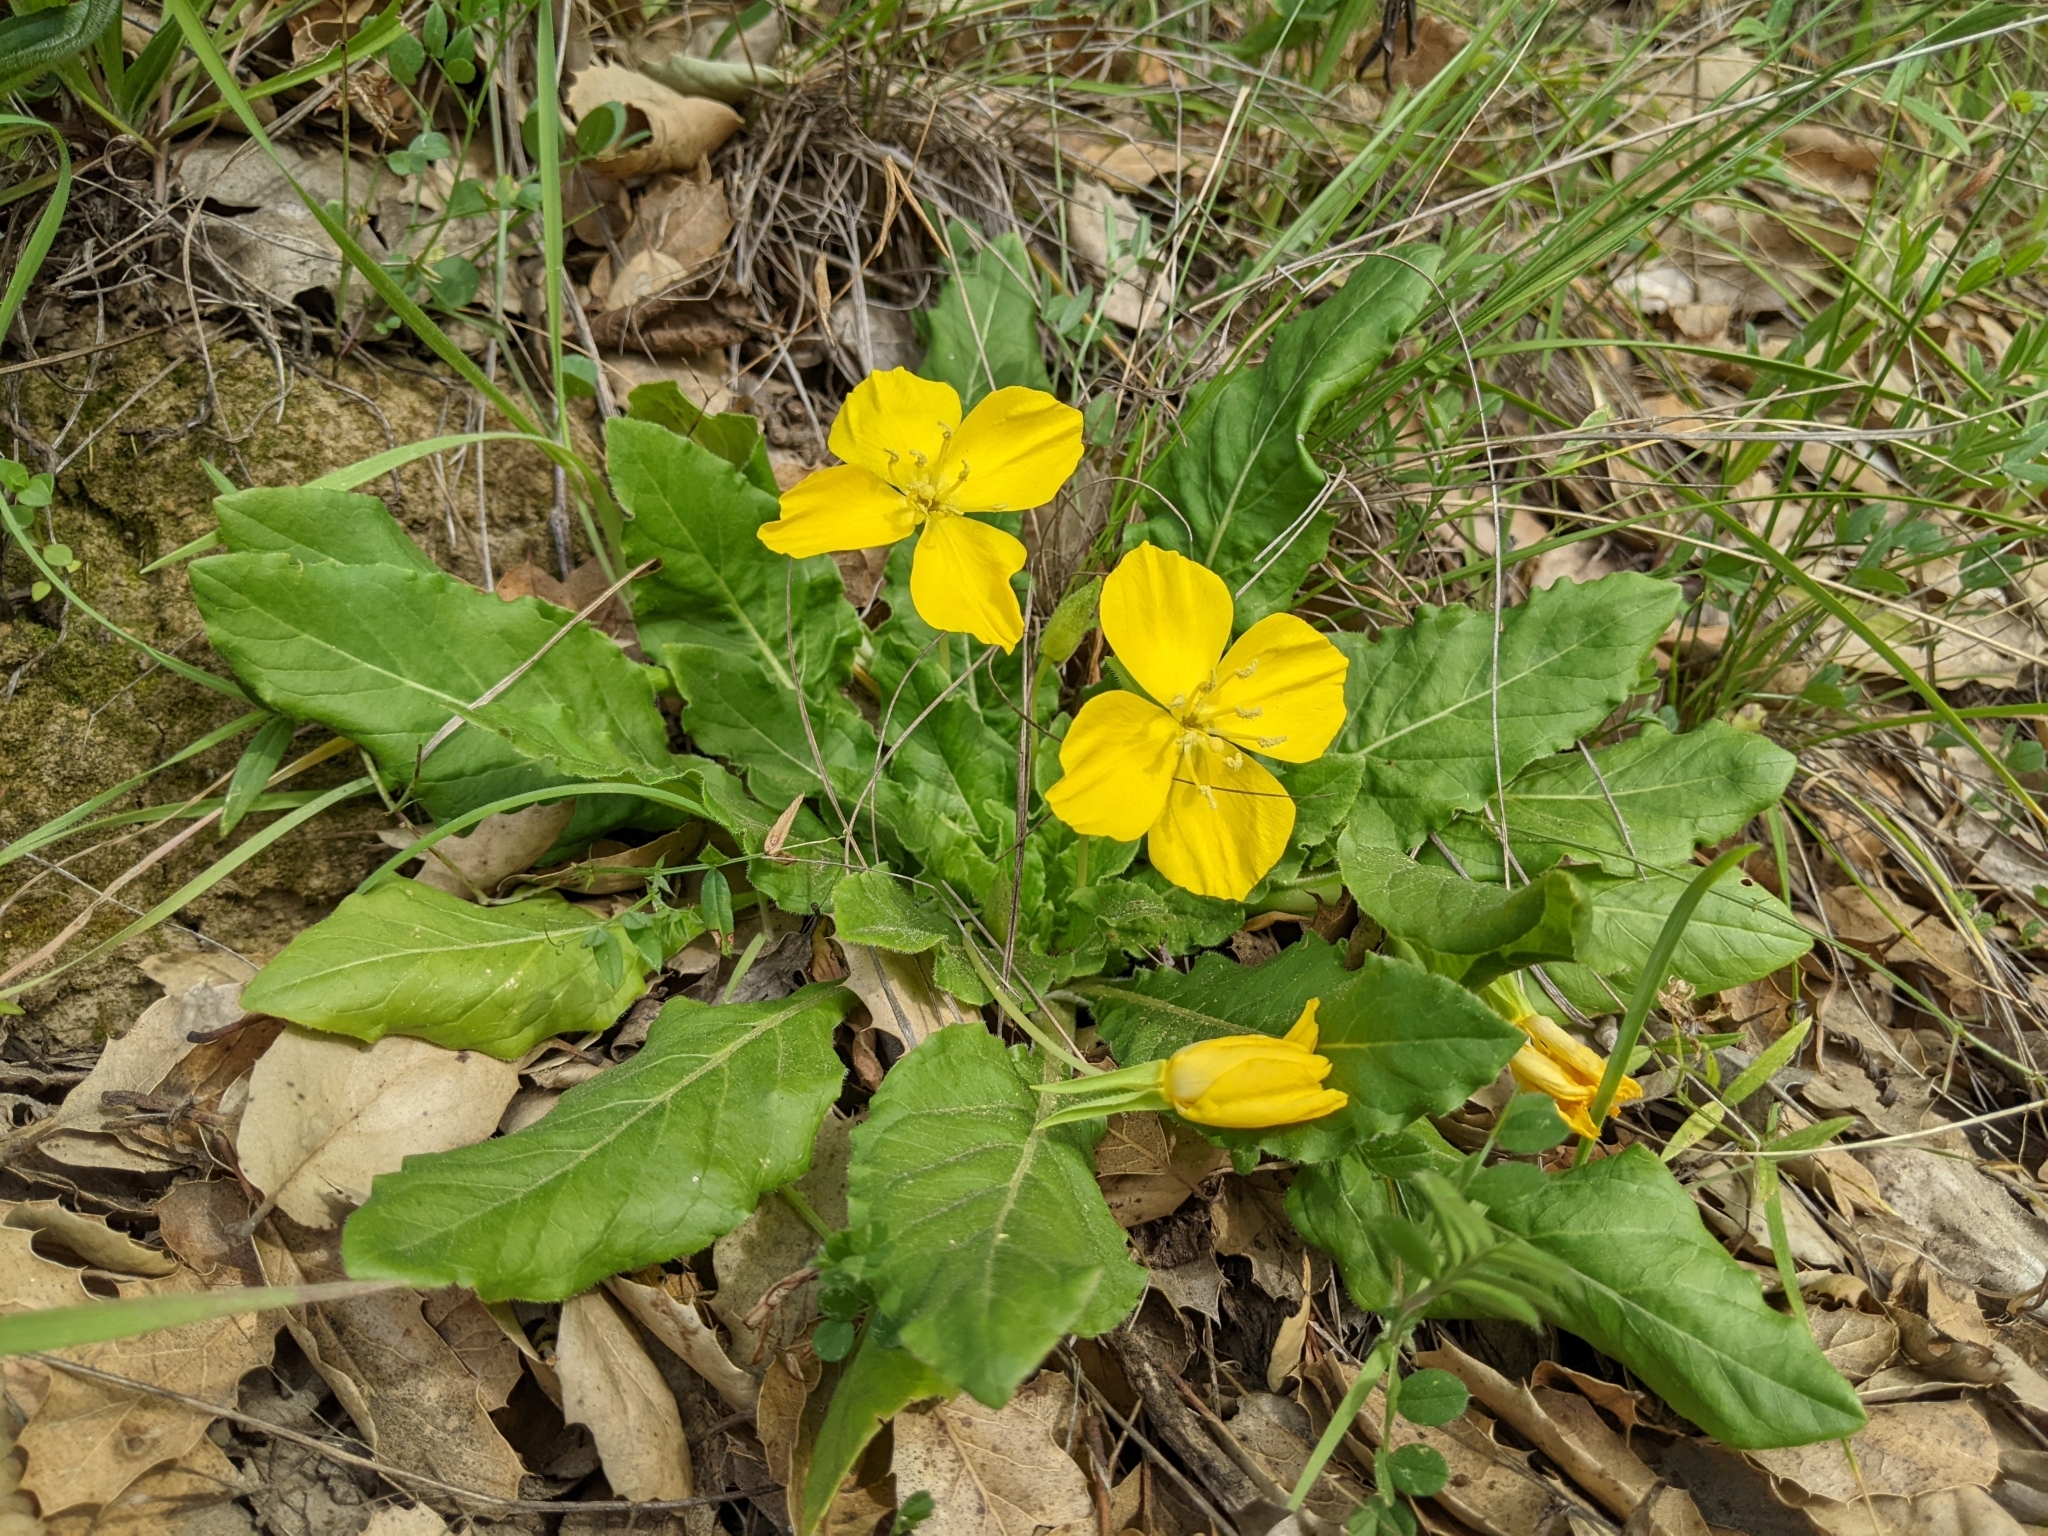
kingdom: Plantae
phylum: Tracheophyta
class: Magnoliopsida
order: Myrtales
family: Onagraceae
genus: Taraxia
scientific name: Taraxia ovata
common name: Goldeneggs
